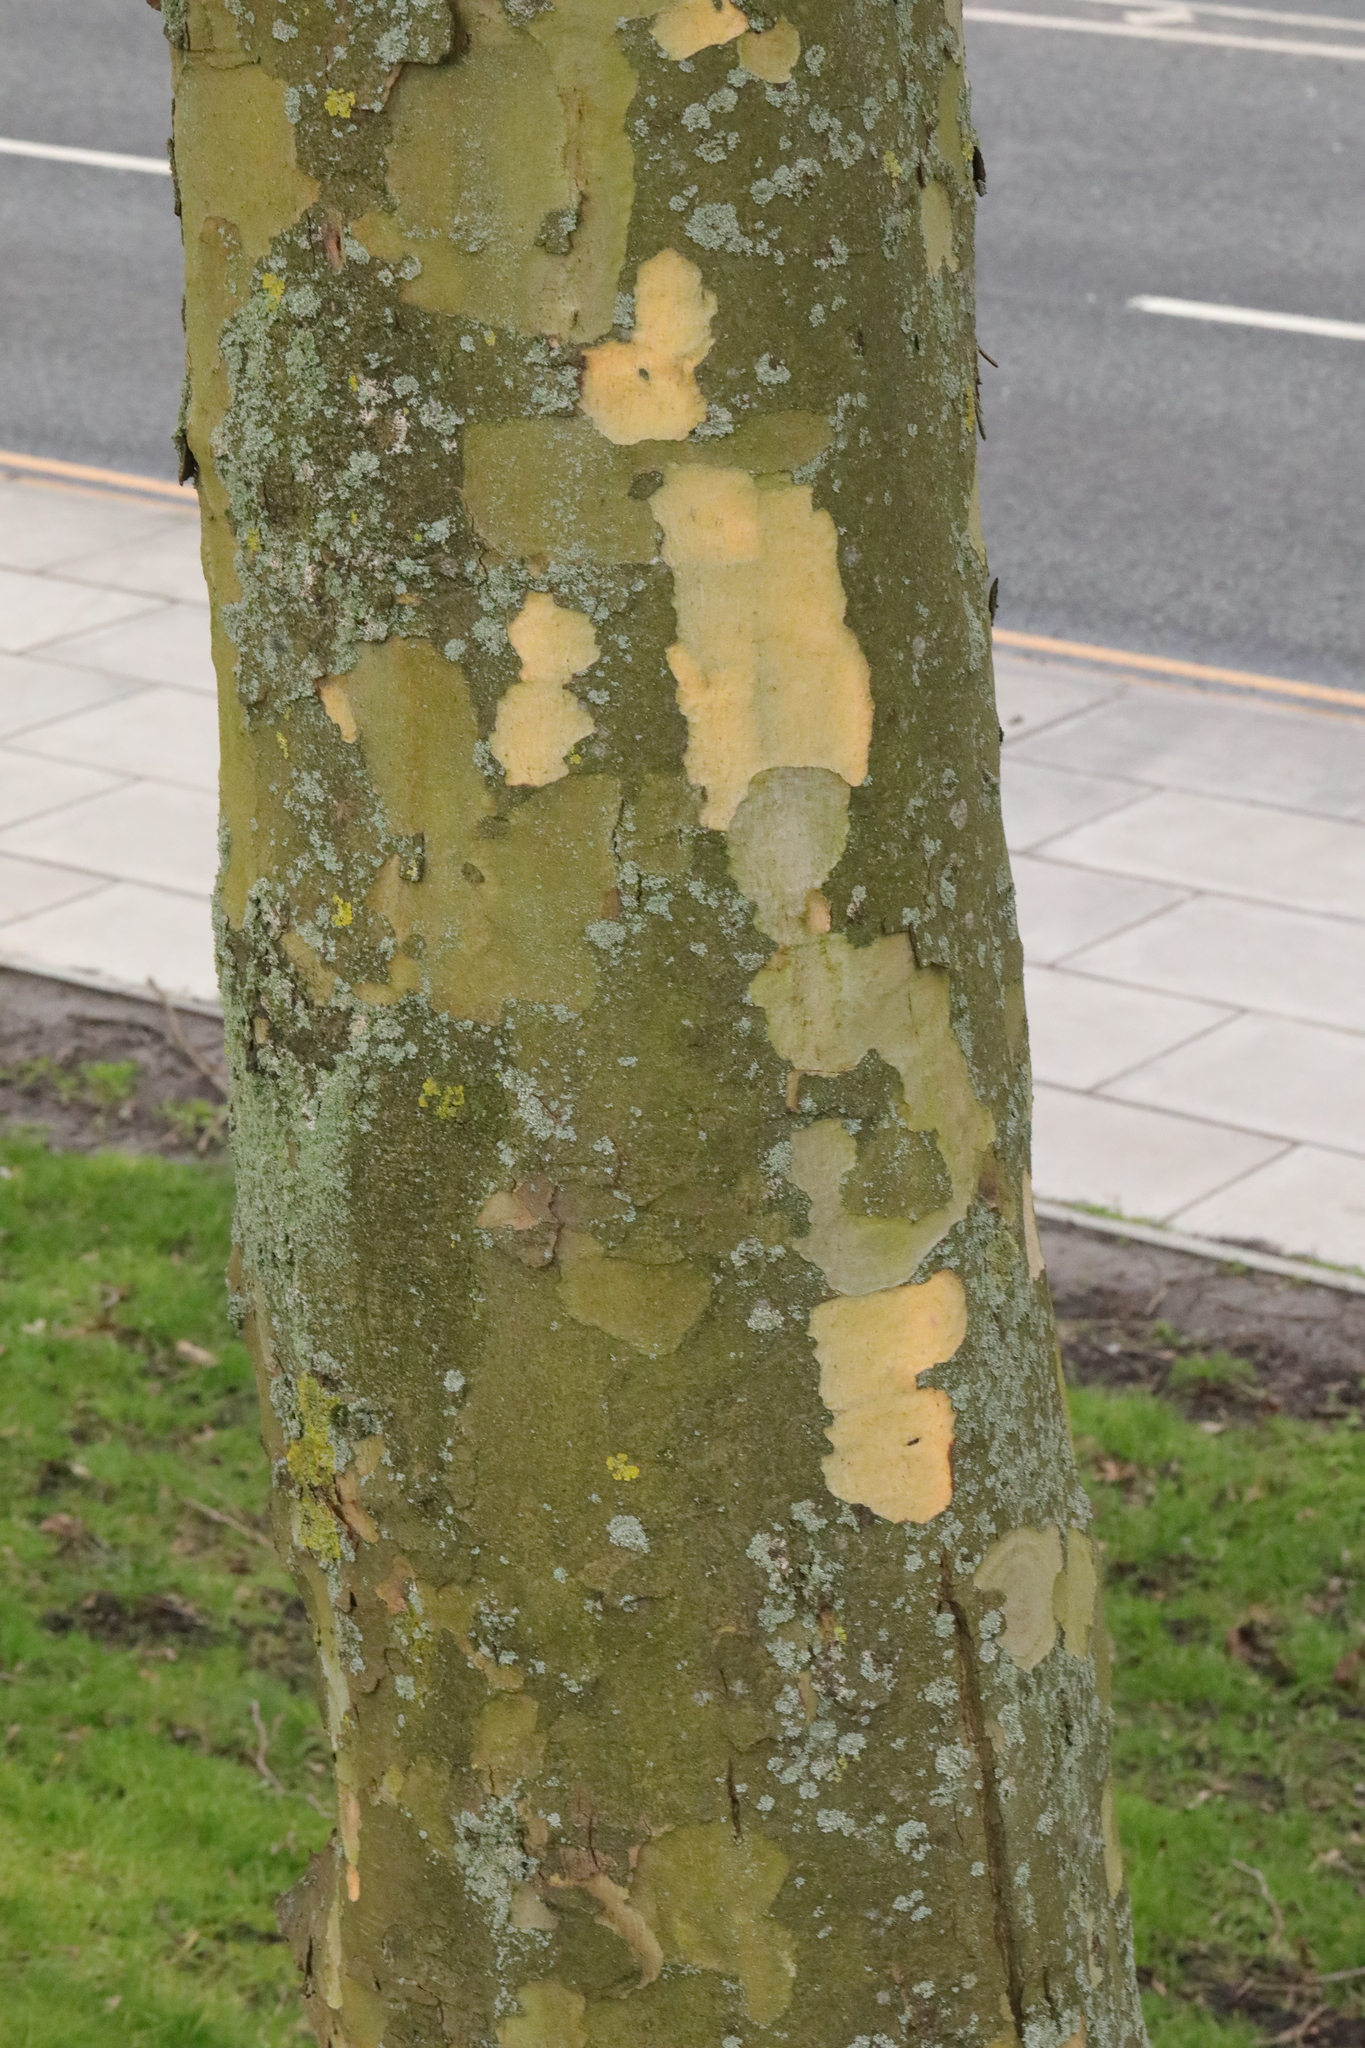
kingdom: Plantae
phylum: Tracheophyta
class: Magnoliopsida
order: Proteales
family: Platanaceae
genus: Platanus
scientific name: Platanus hispanica
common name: London plane
